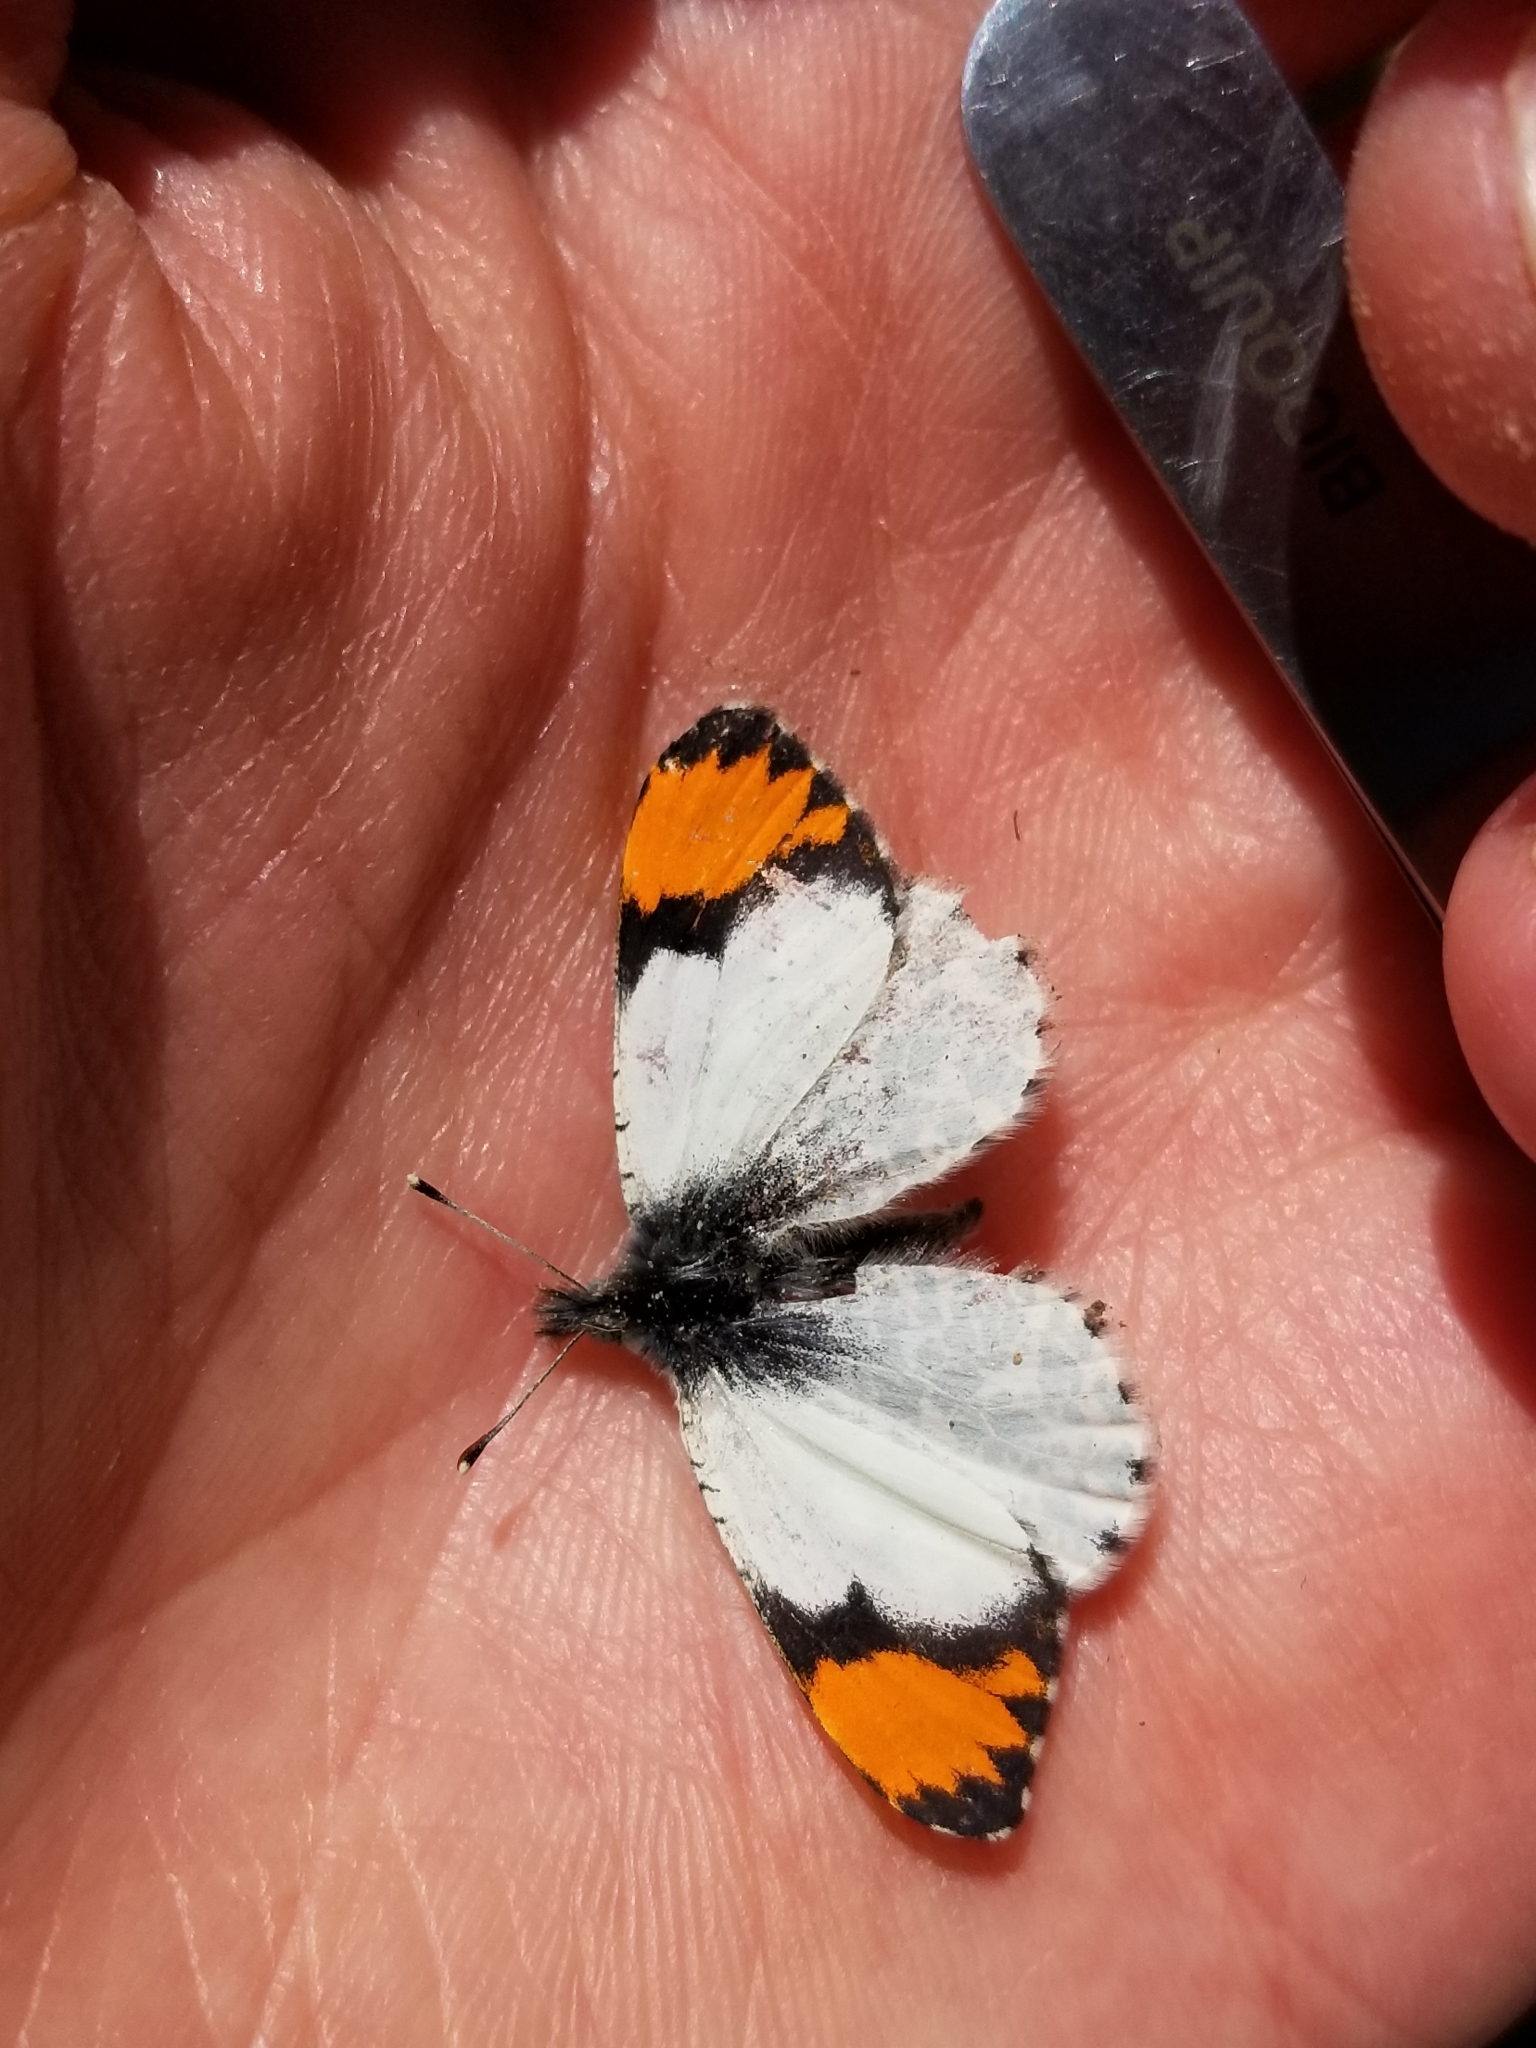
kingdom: Animalia
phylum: Arthropoda
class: Insecta
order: Lepidoptera
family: Pieridae
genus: Anthocharis
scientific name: Anthocharis thoosa
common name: Southwestern orangetip
